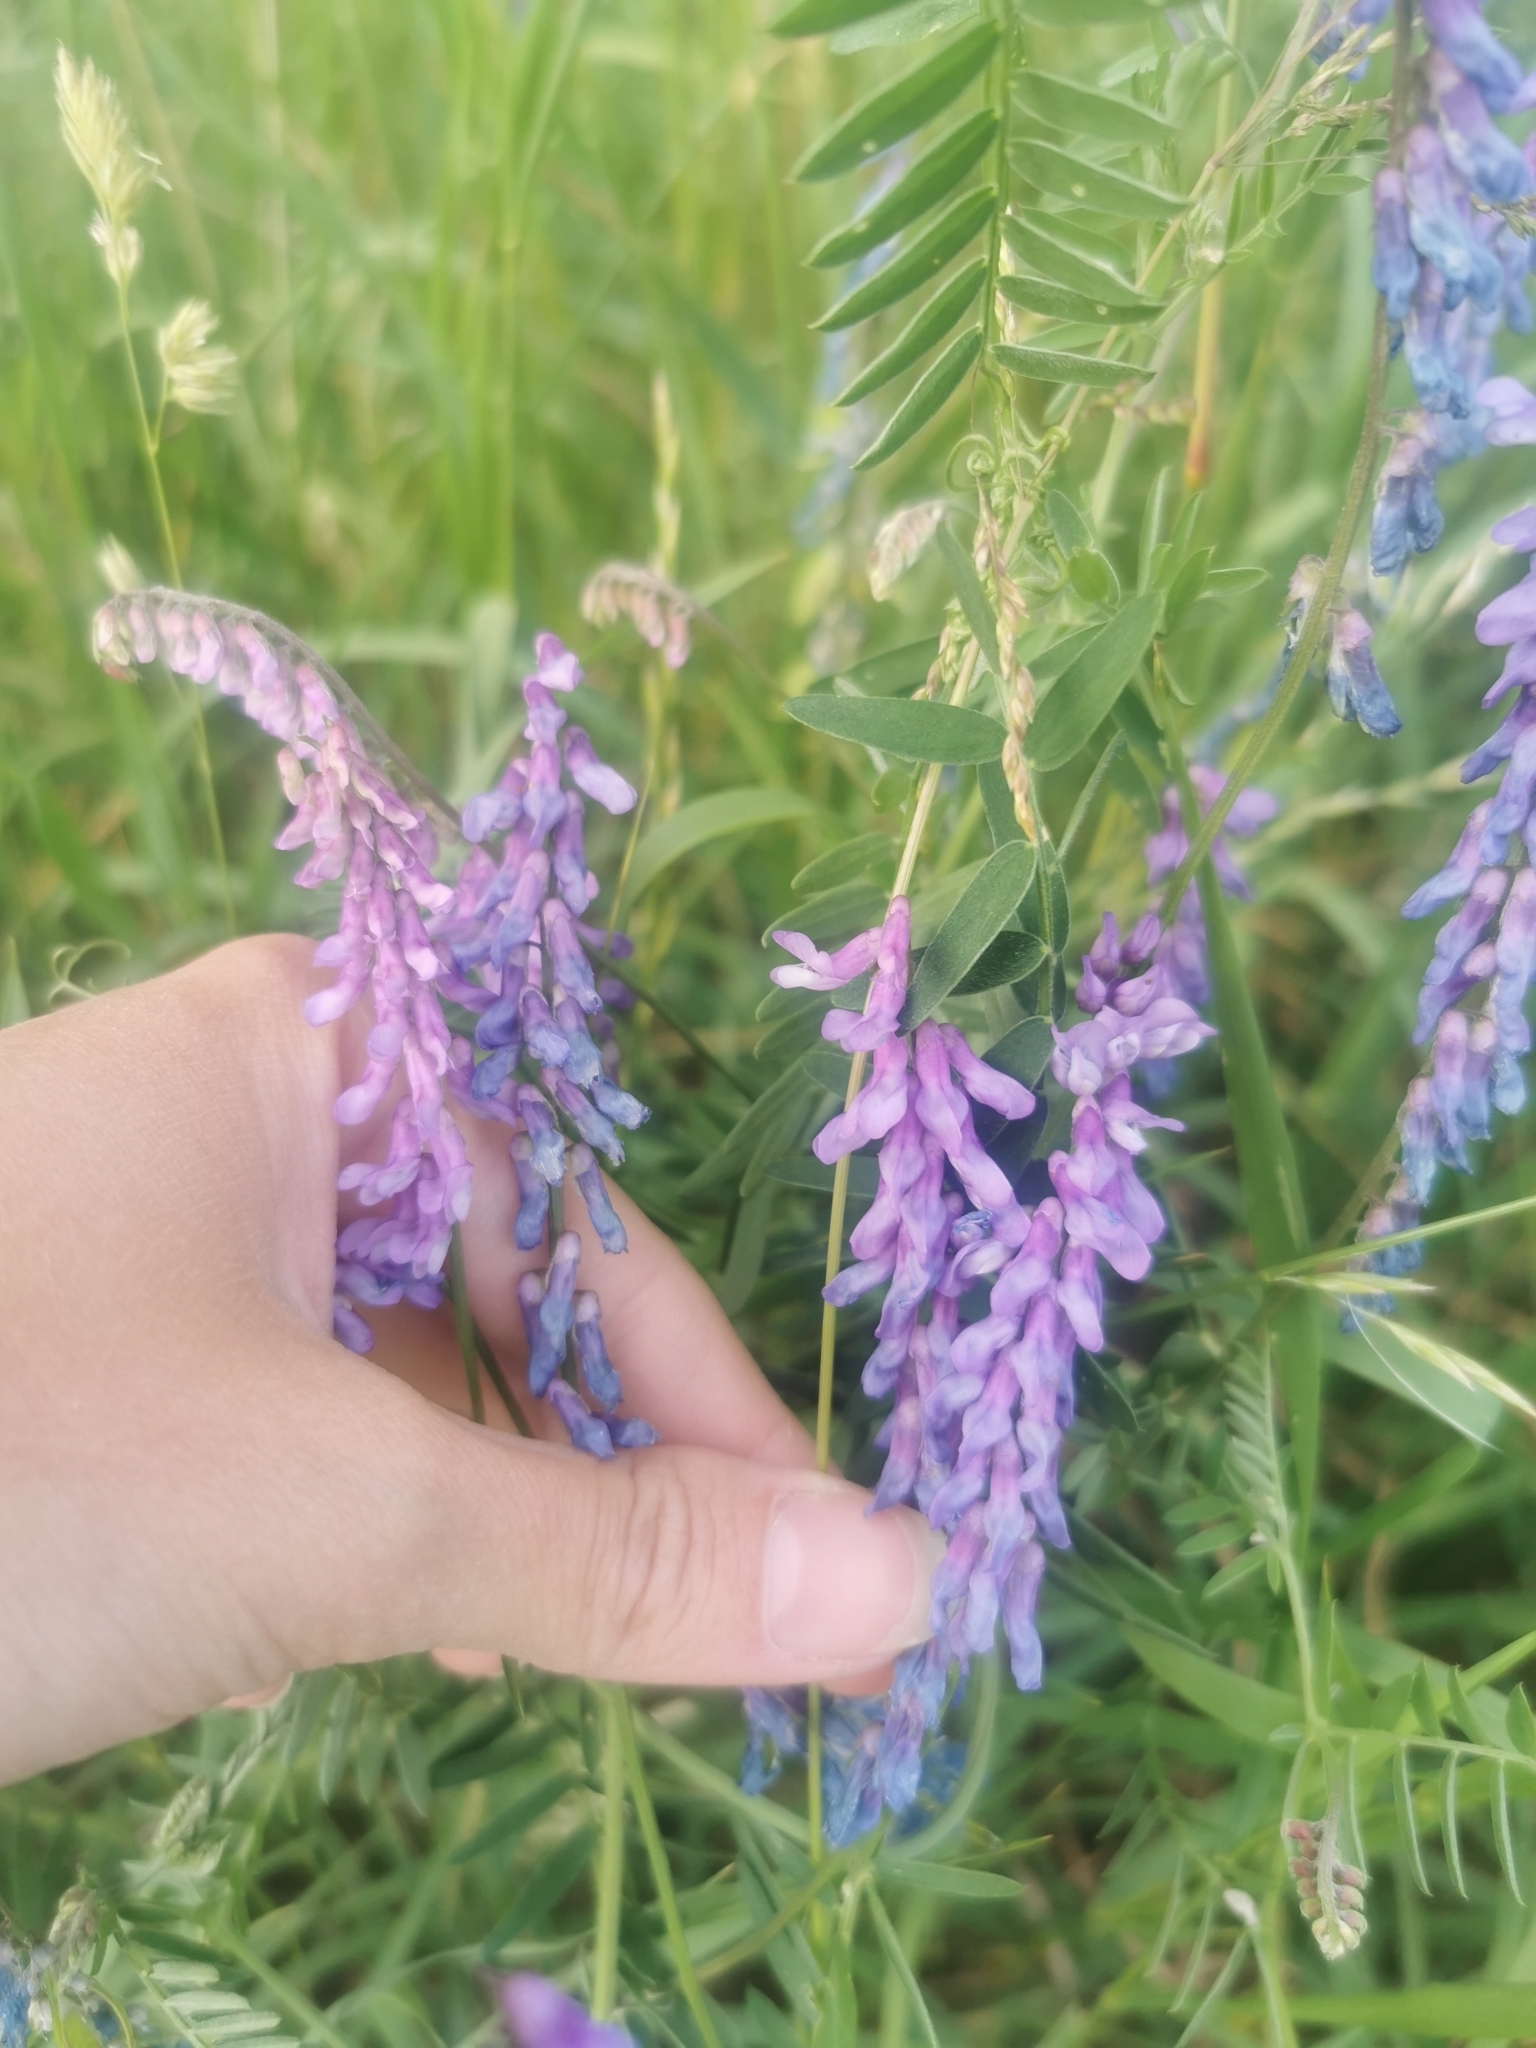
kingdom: Plantae
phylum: Tracheophyta
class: Magnoliopsida
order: Fabales
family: Fabaceae
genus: Vicia
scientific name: Vicia cracca
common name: Bird vetch
